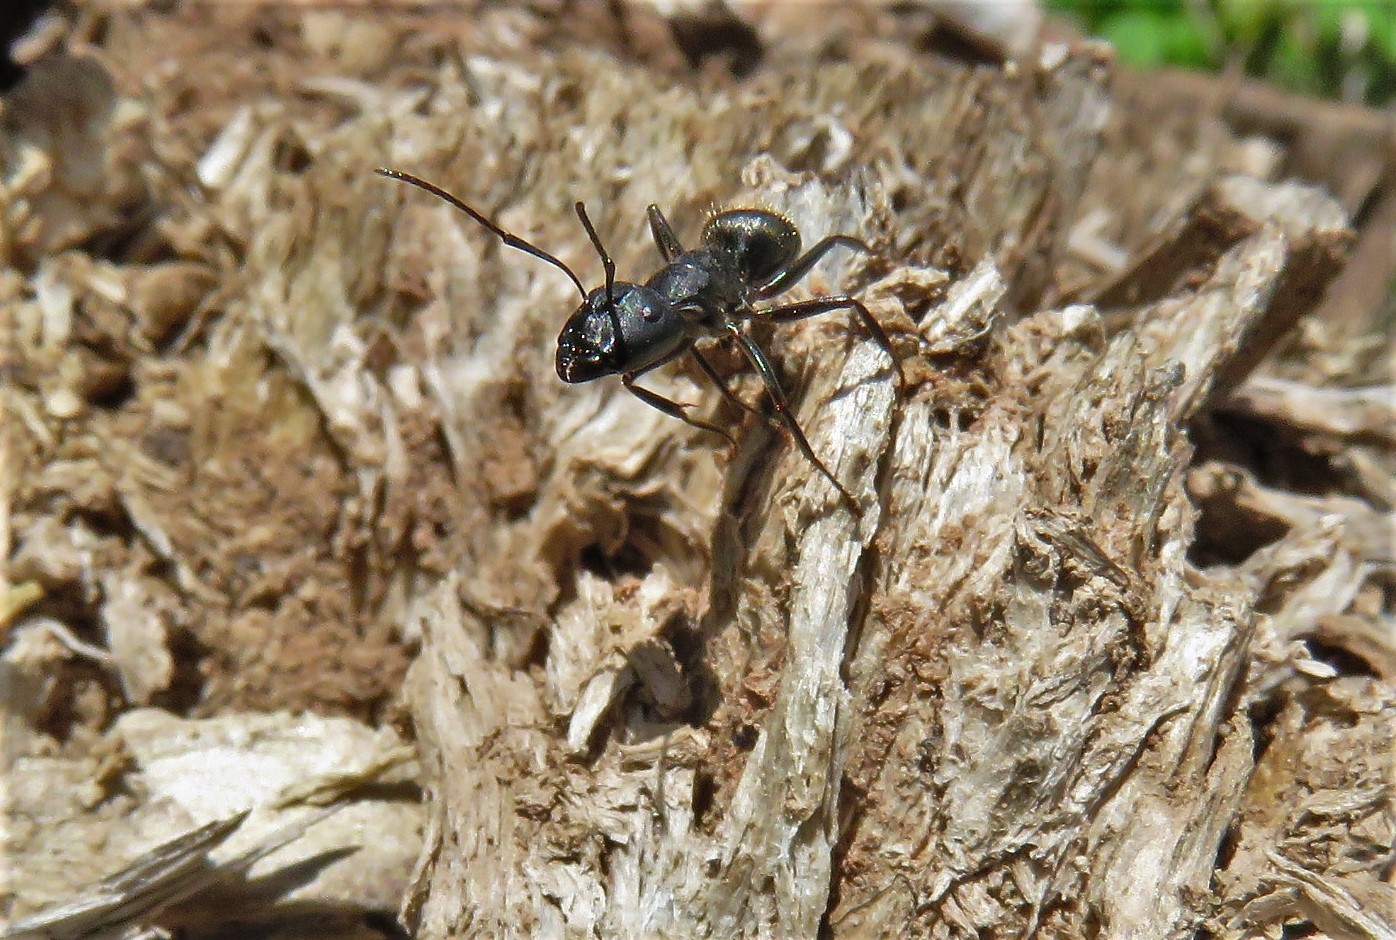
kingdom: Animalia
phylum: Arthropoda
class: Insecta
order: Hymenoptera
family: Formicidae
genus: Camponotus
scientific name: Camponotus pennsylvanicus
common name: Black carpenter ant
